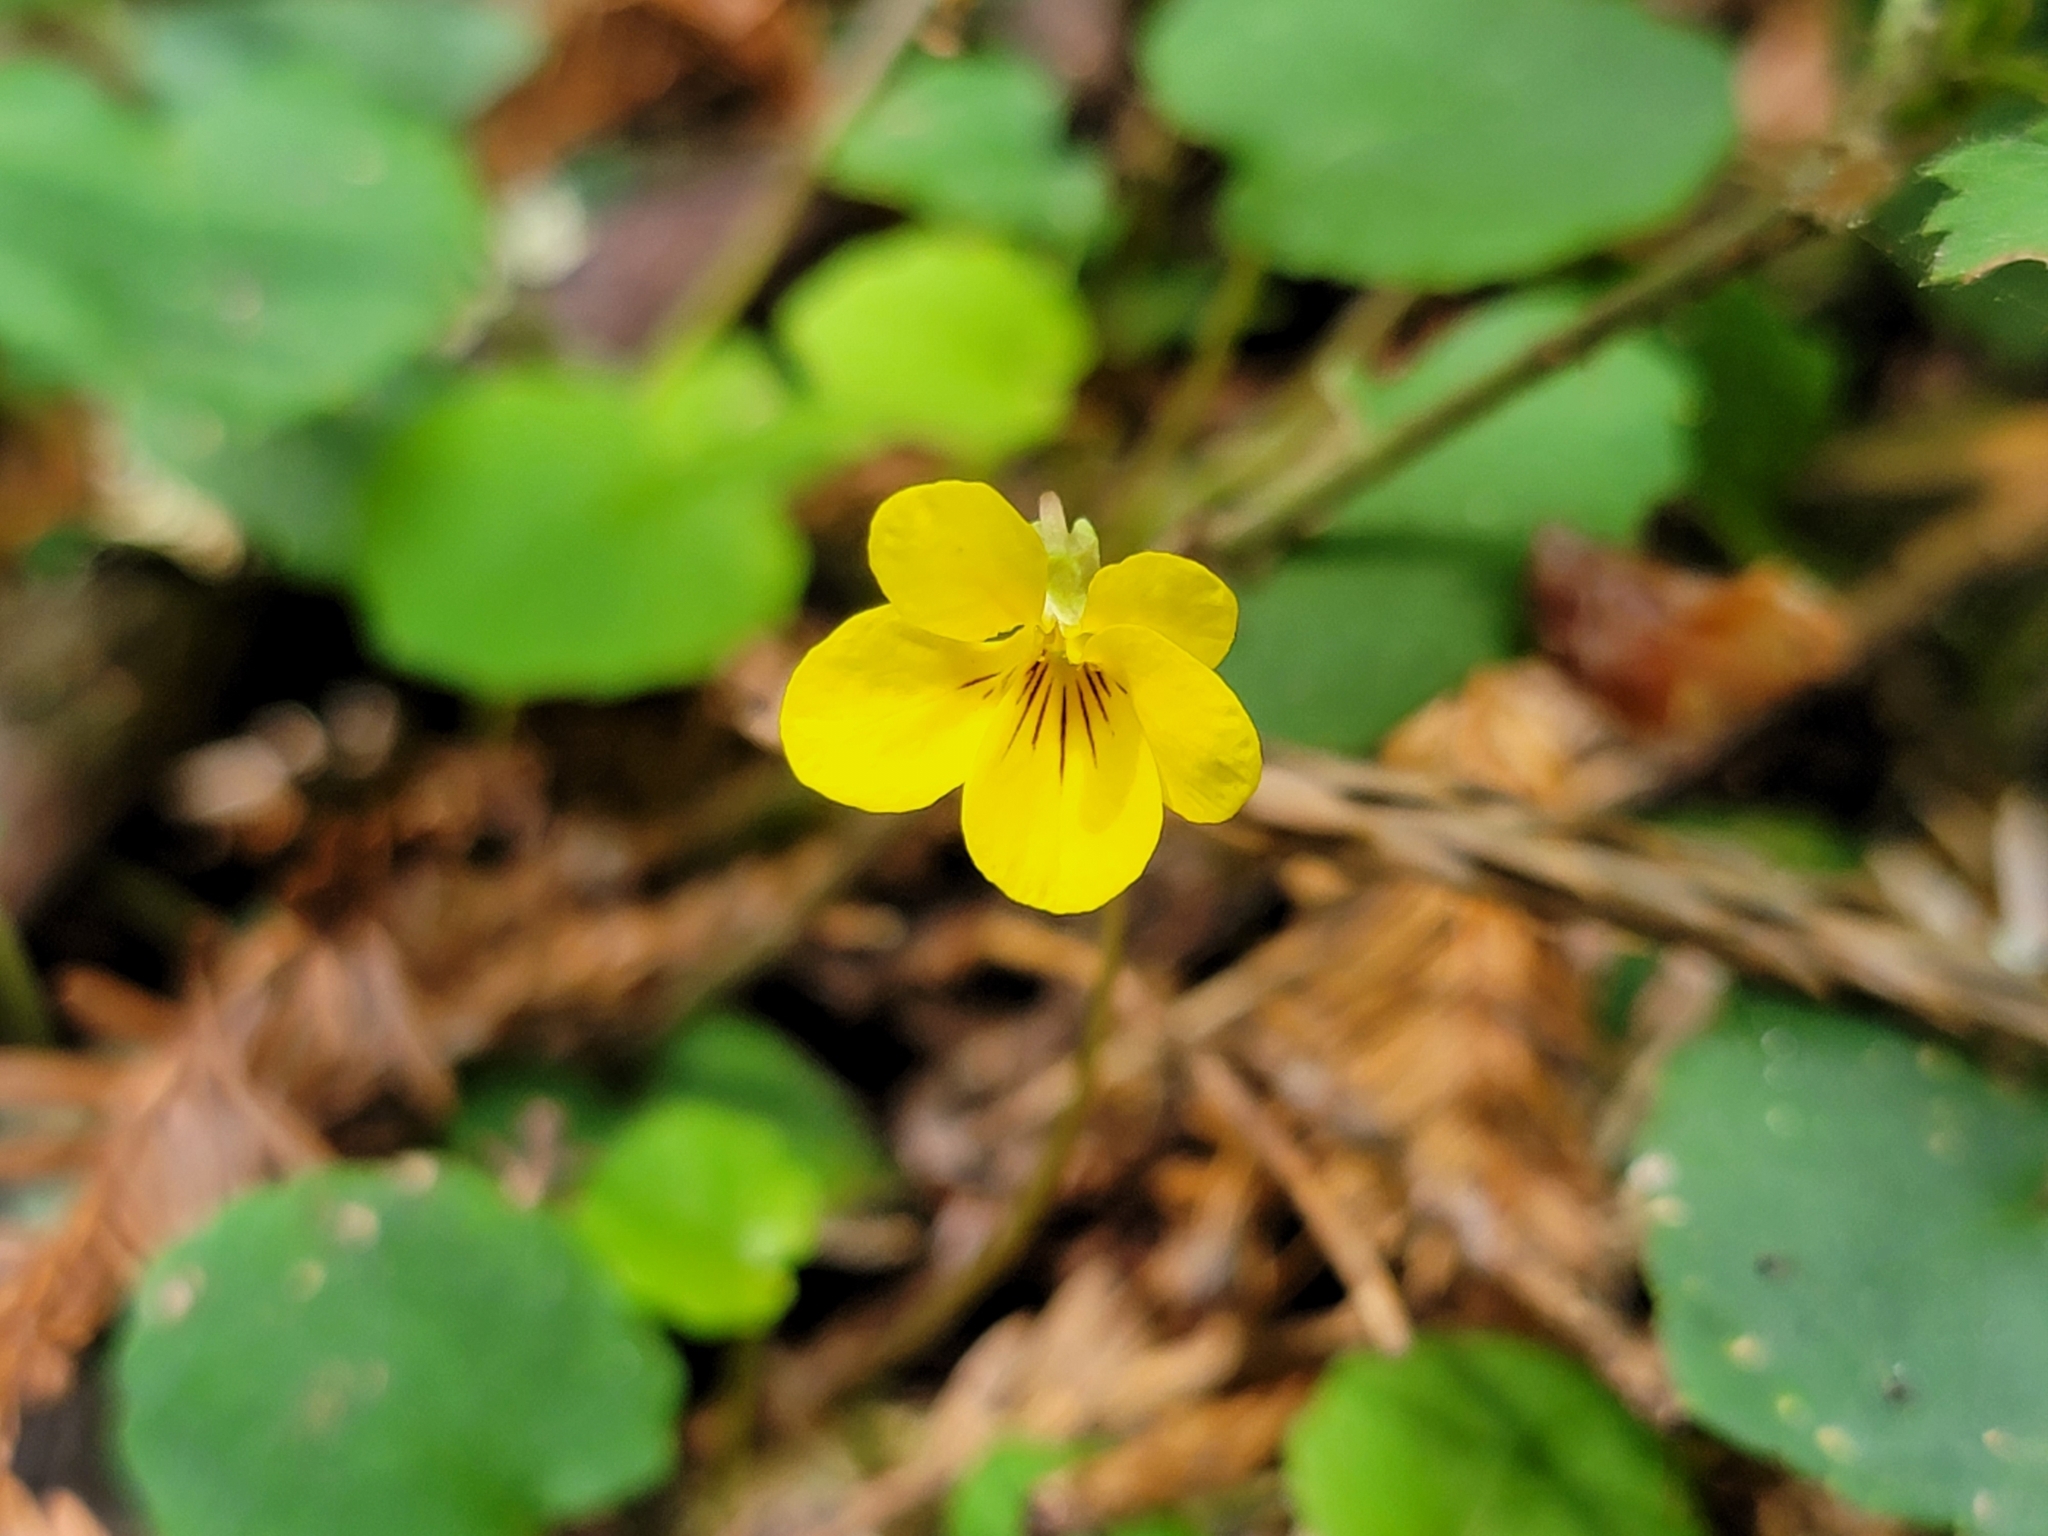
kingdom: Plantae
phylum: Tracheophyta
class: Magnoliopsida
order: Malpighiales
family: Violaceae
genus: Viola
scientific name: Viola sempervirens
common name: Evergreen violet
